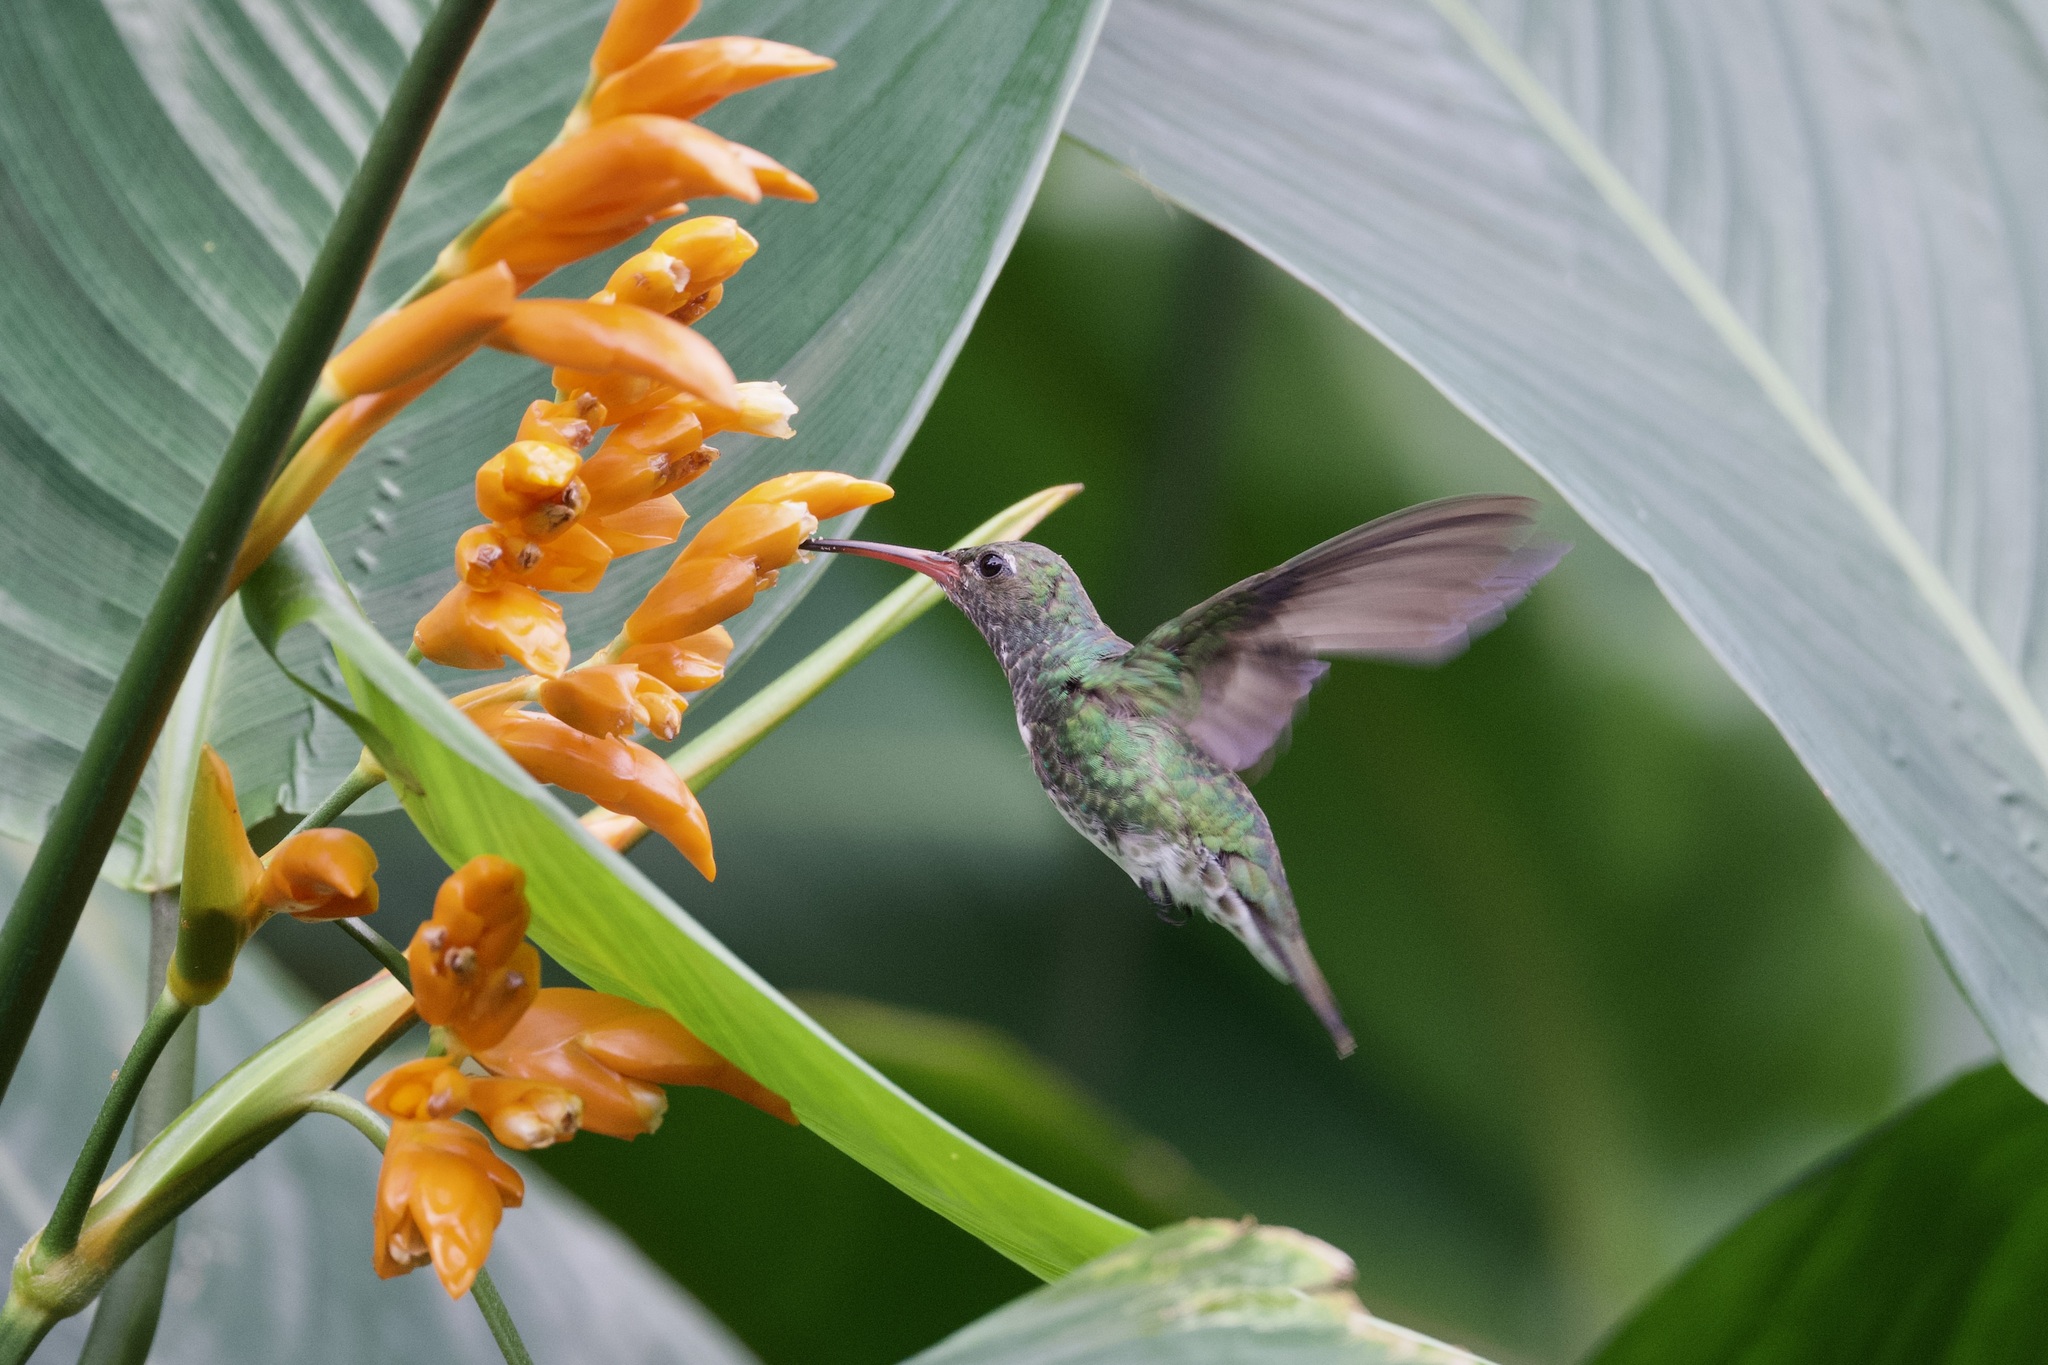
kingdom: Animalia
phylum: Chordata
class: Aves
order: Apodiformes
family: Trochilidae
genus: Chionomesa
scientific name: Chionomesa fimbriata
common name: Glittering-throated emerald
